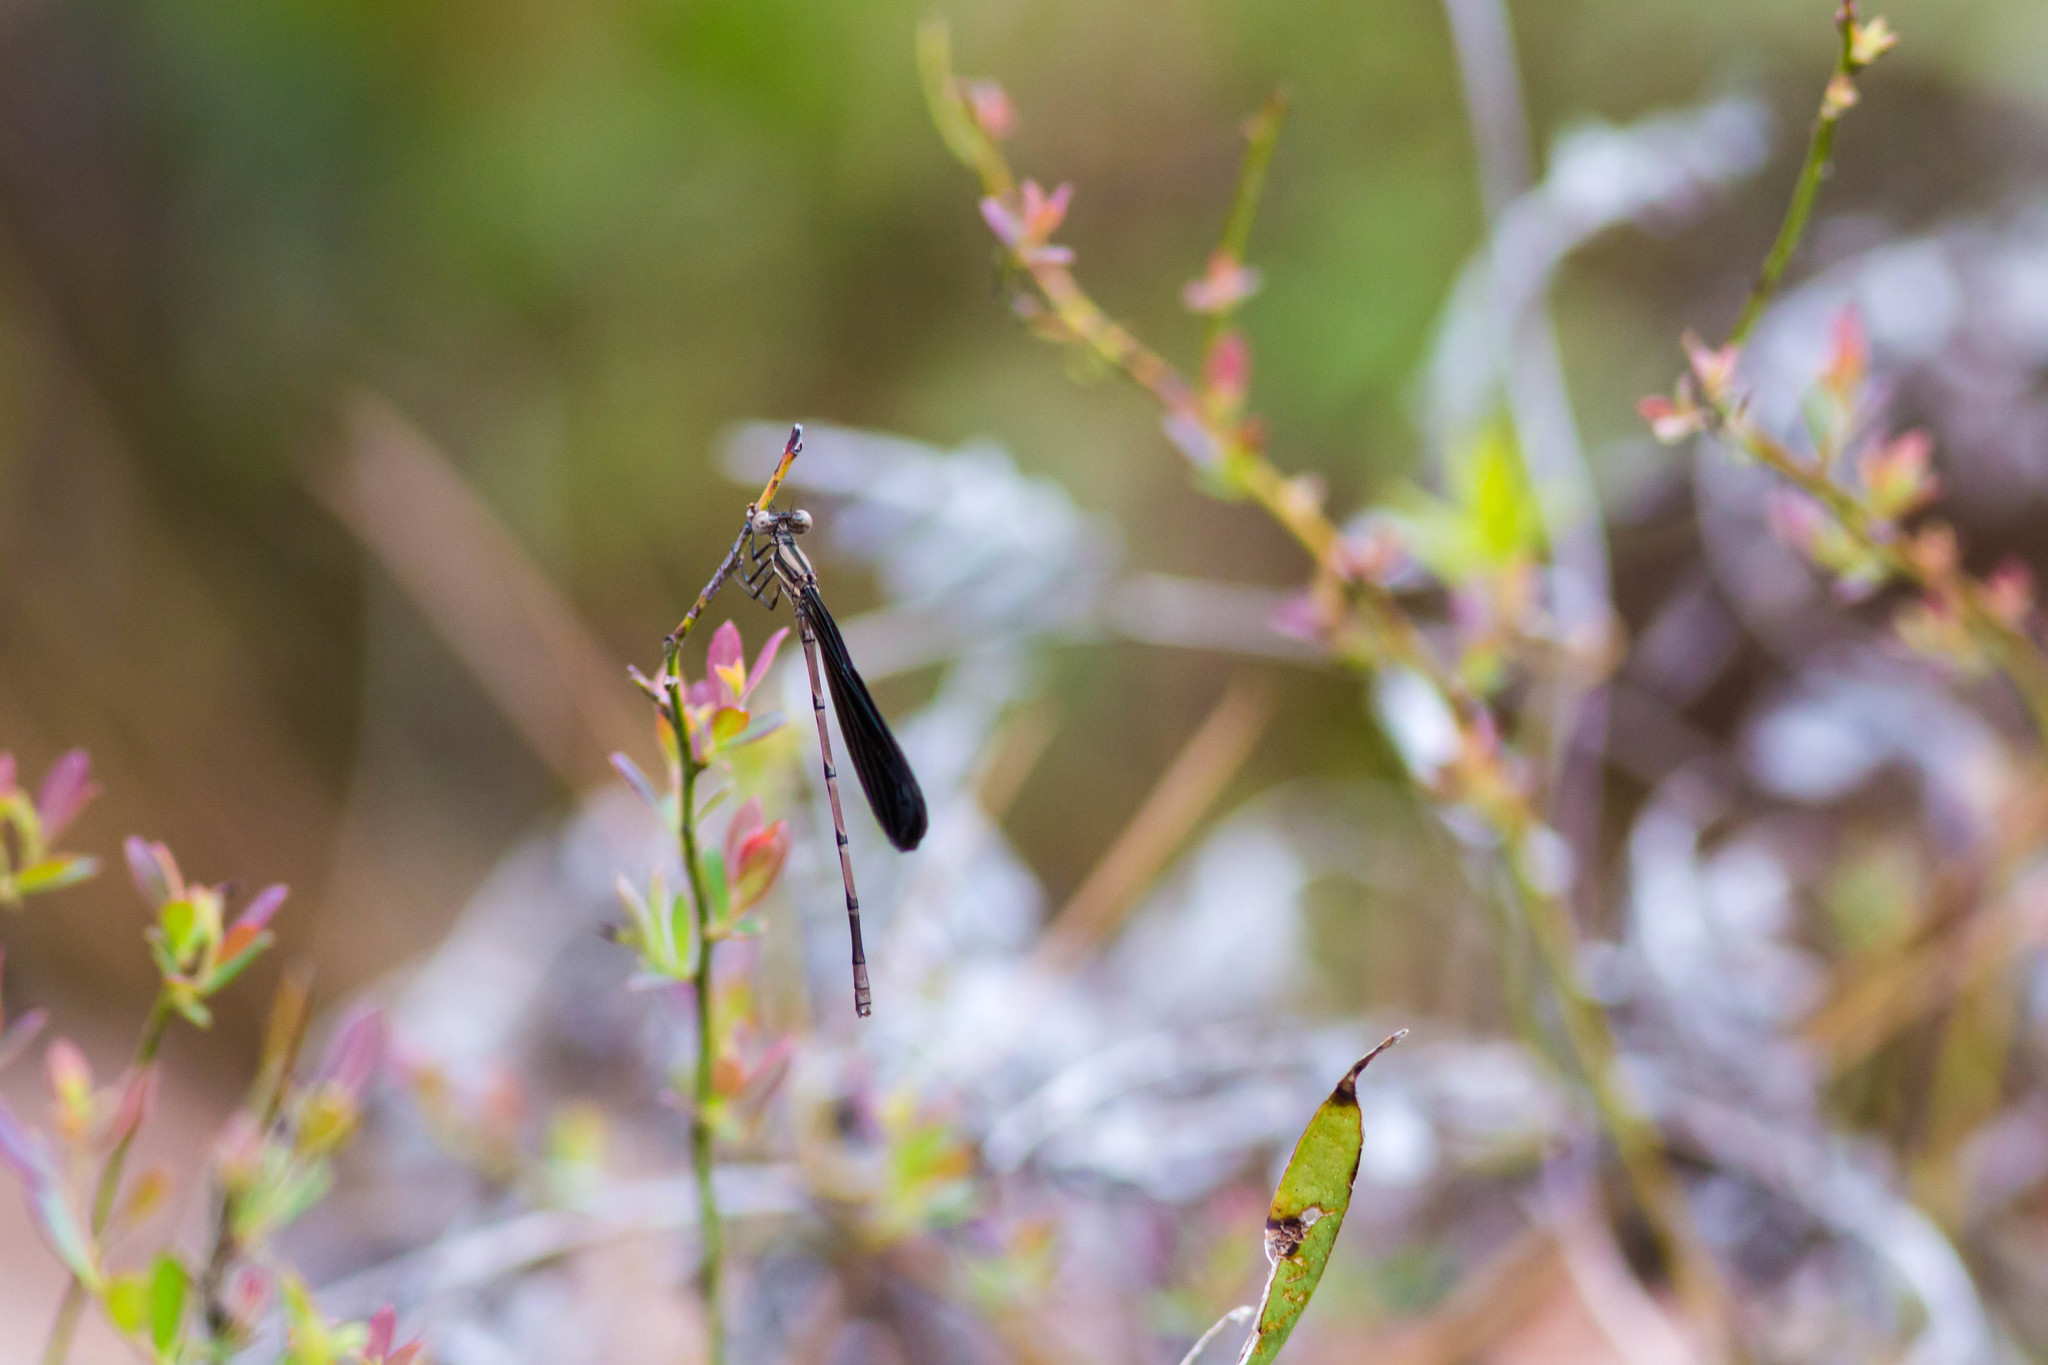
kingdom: Animalia
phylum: Arthropoda
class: Insecta
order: Odonata
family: Coenagrionidae
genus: Argia
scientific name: Argia fumipennis
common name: Variable dancer
